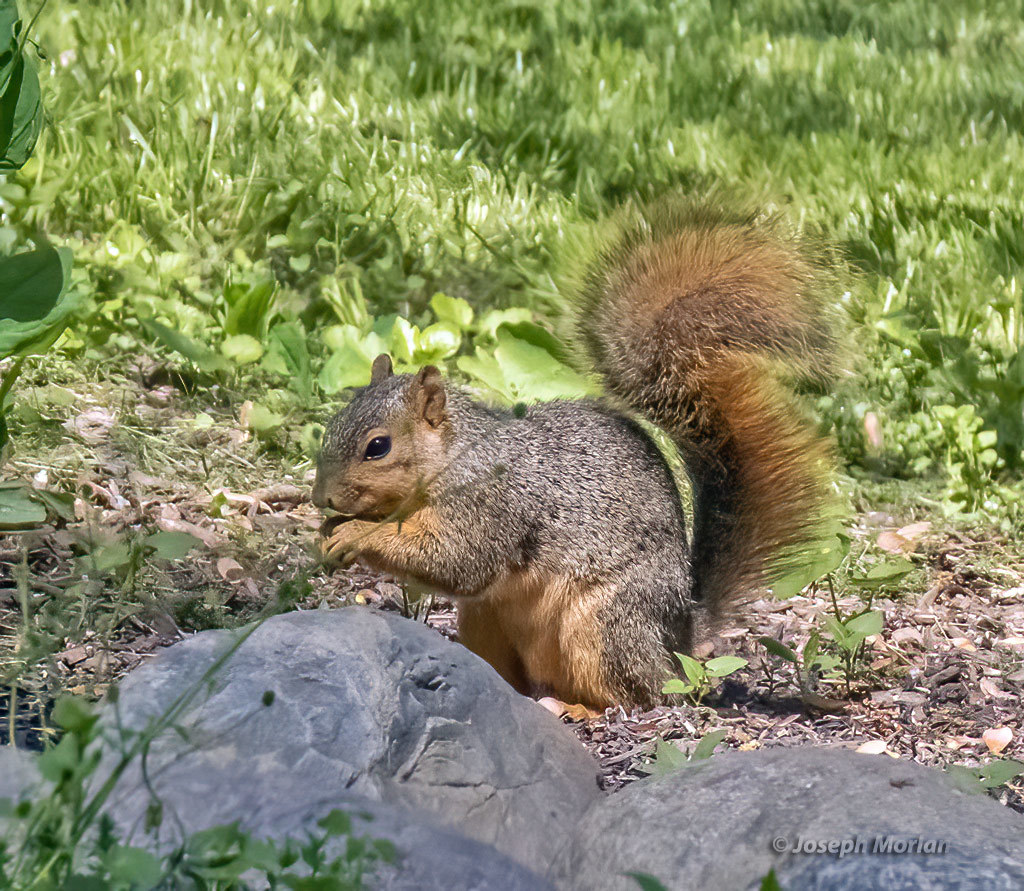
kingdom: Animalia
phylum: Chordata
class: Mammalia
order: Rodentia
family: Sciuridae
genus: Sciurus
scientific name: Sciurus niger
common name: Fox squirrel
